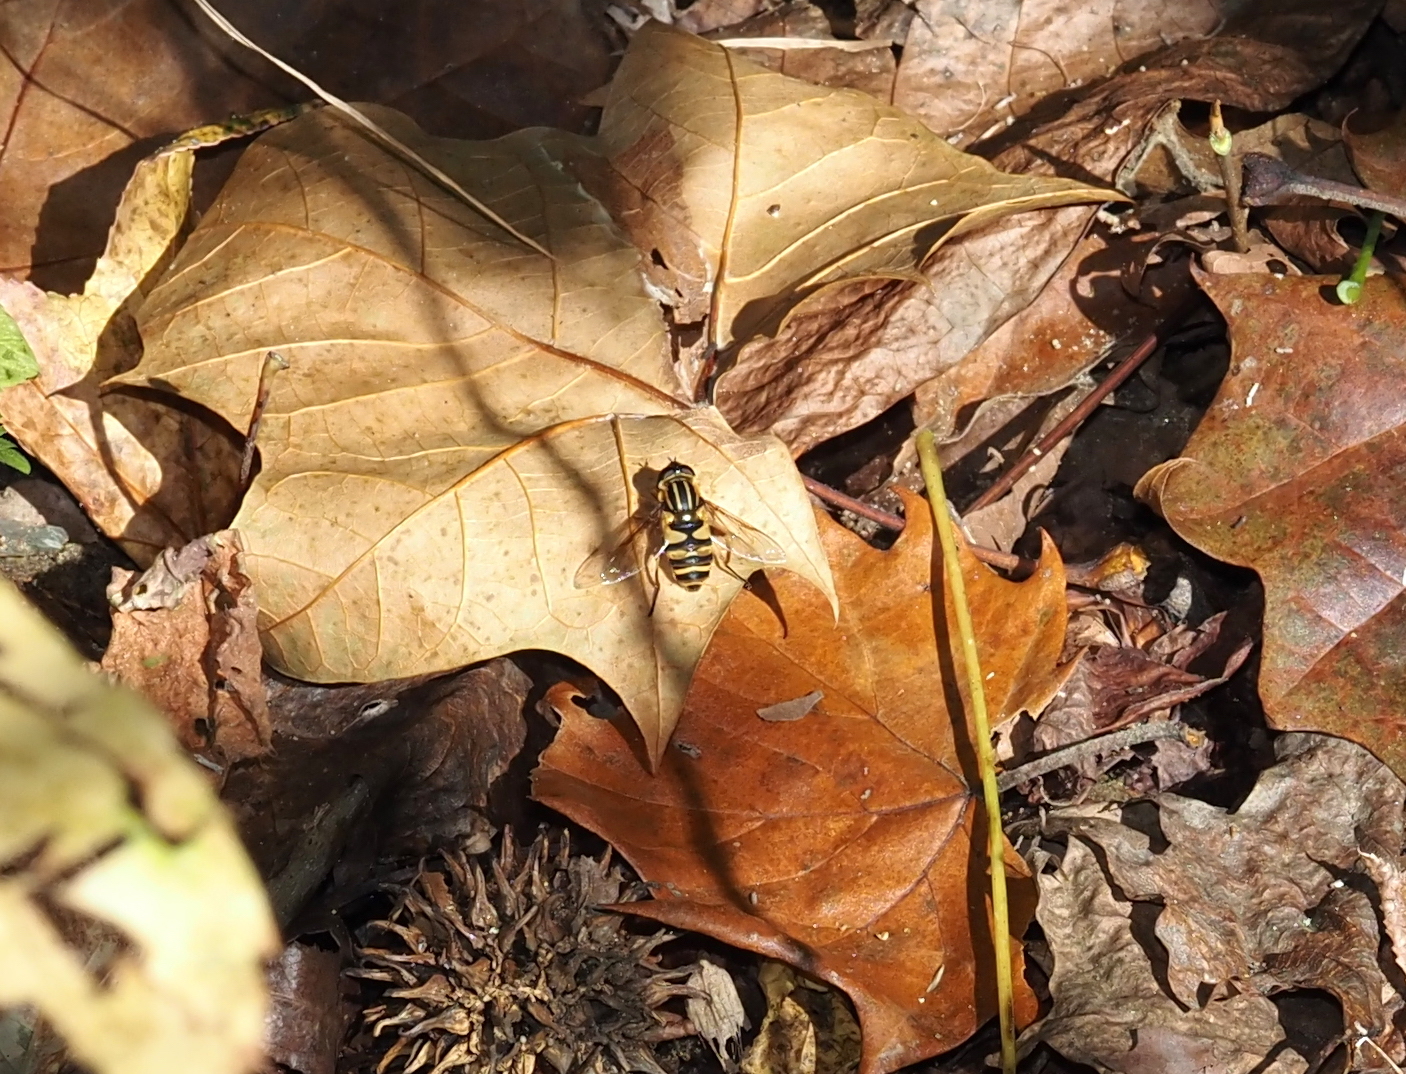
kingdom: Animalia
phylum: Arthropoda
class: Insecta
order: Diptera
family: Syrphidae
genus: Helophilus
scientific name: Helophilus fasciatus
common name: Narrow-headed marsh fly
